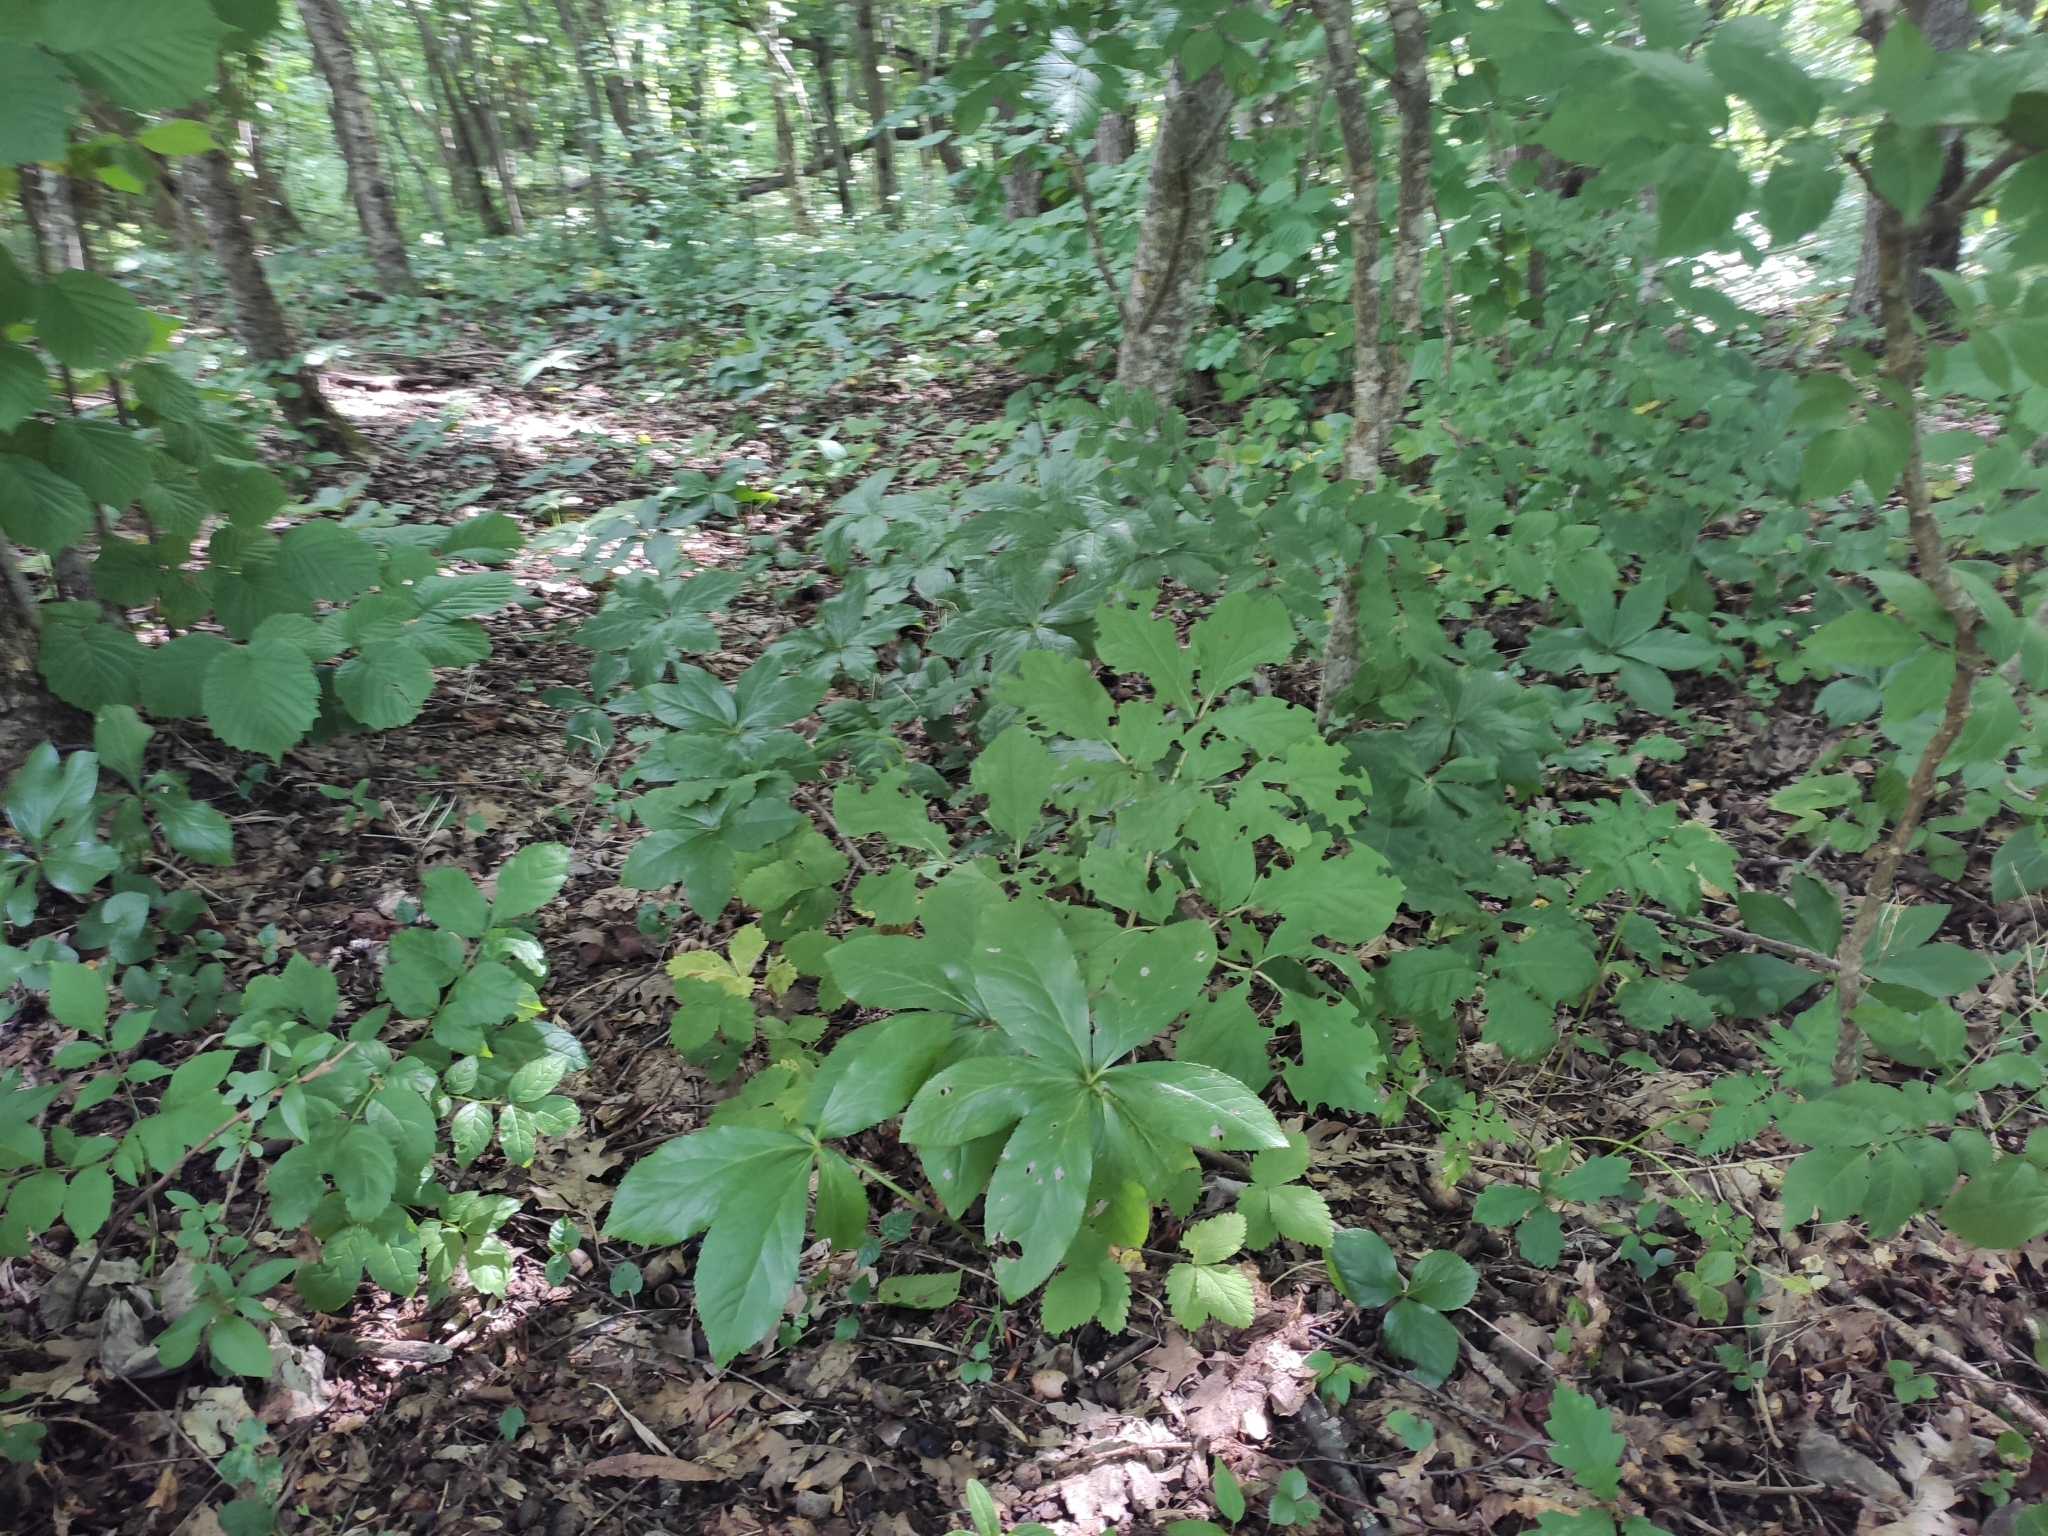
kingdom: Plantae
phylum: Tracheophyta
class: Magnoliopsida
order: Ranunculales
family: Ranunculaceae
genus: Helleborus
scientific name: Helleborus orientalis
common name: Lenten-rose
